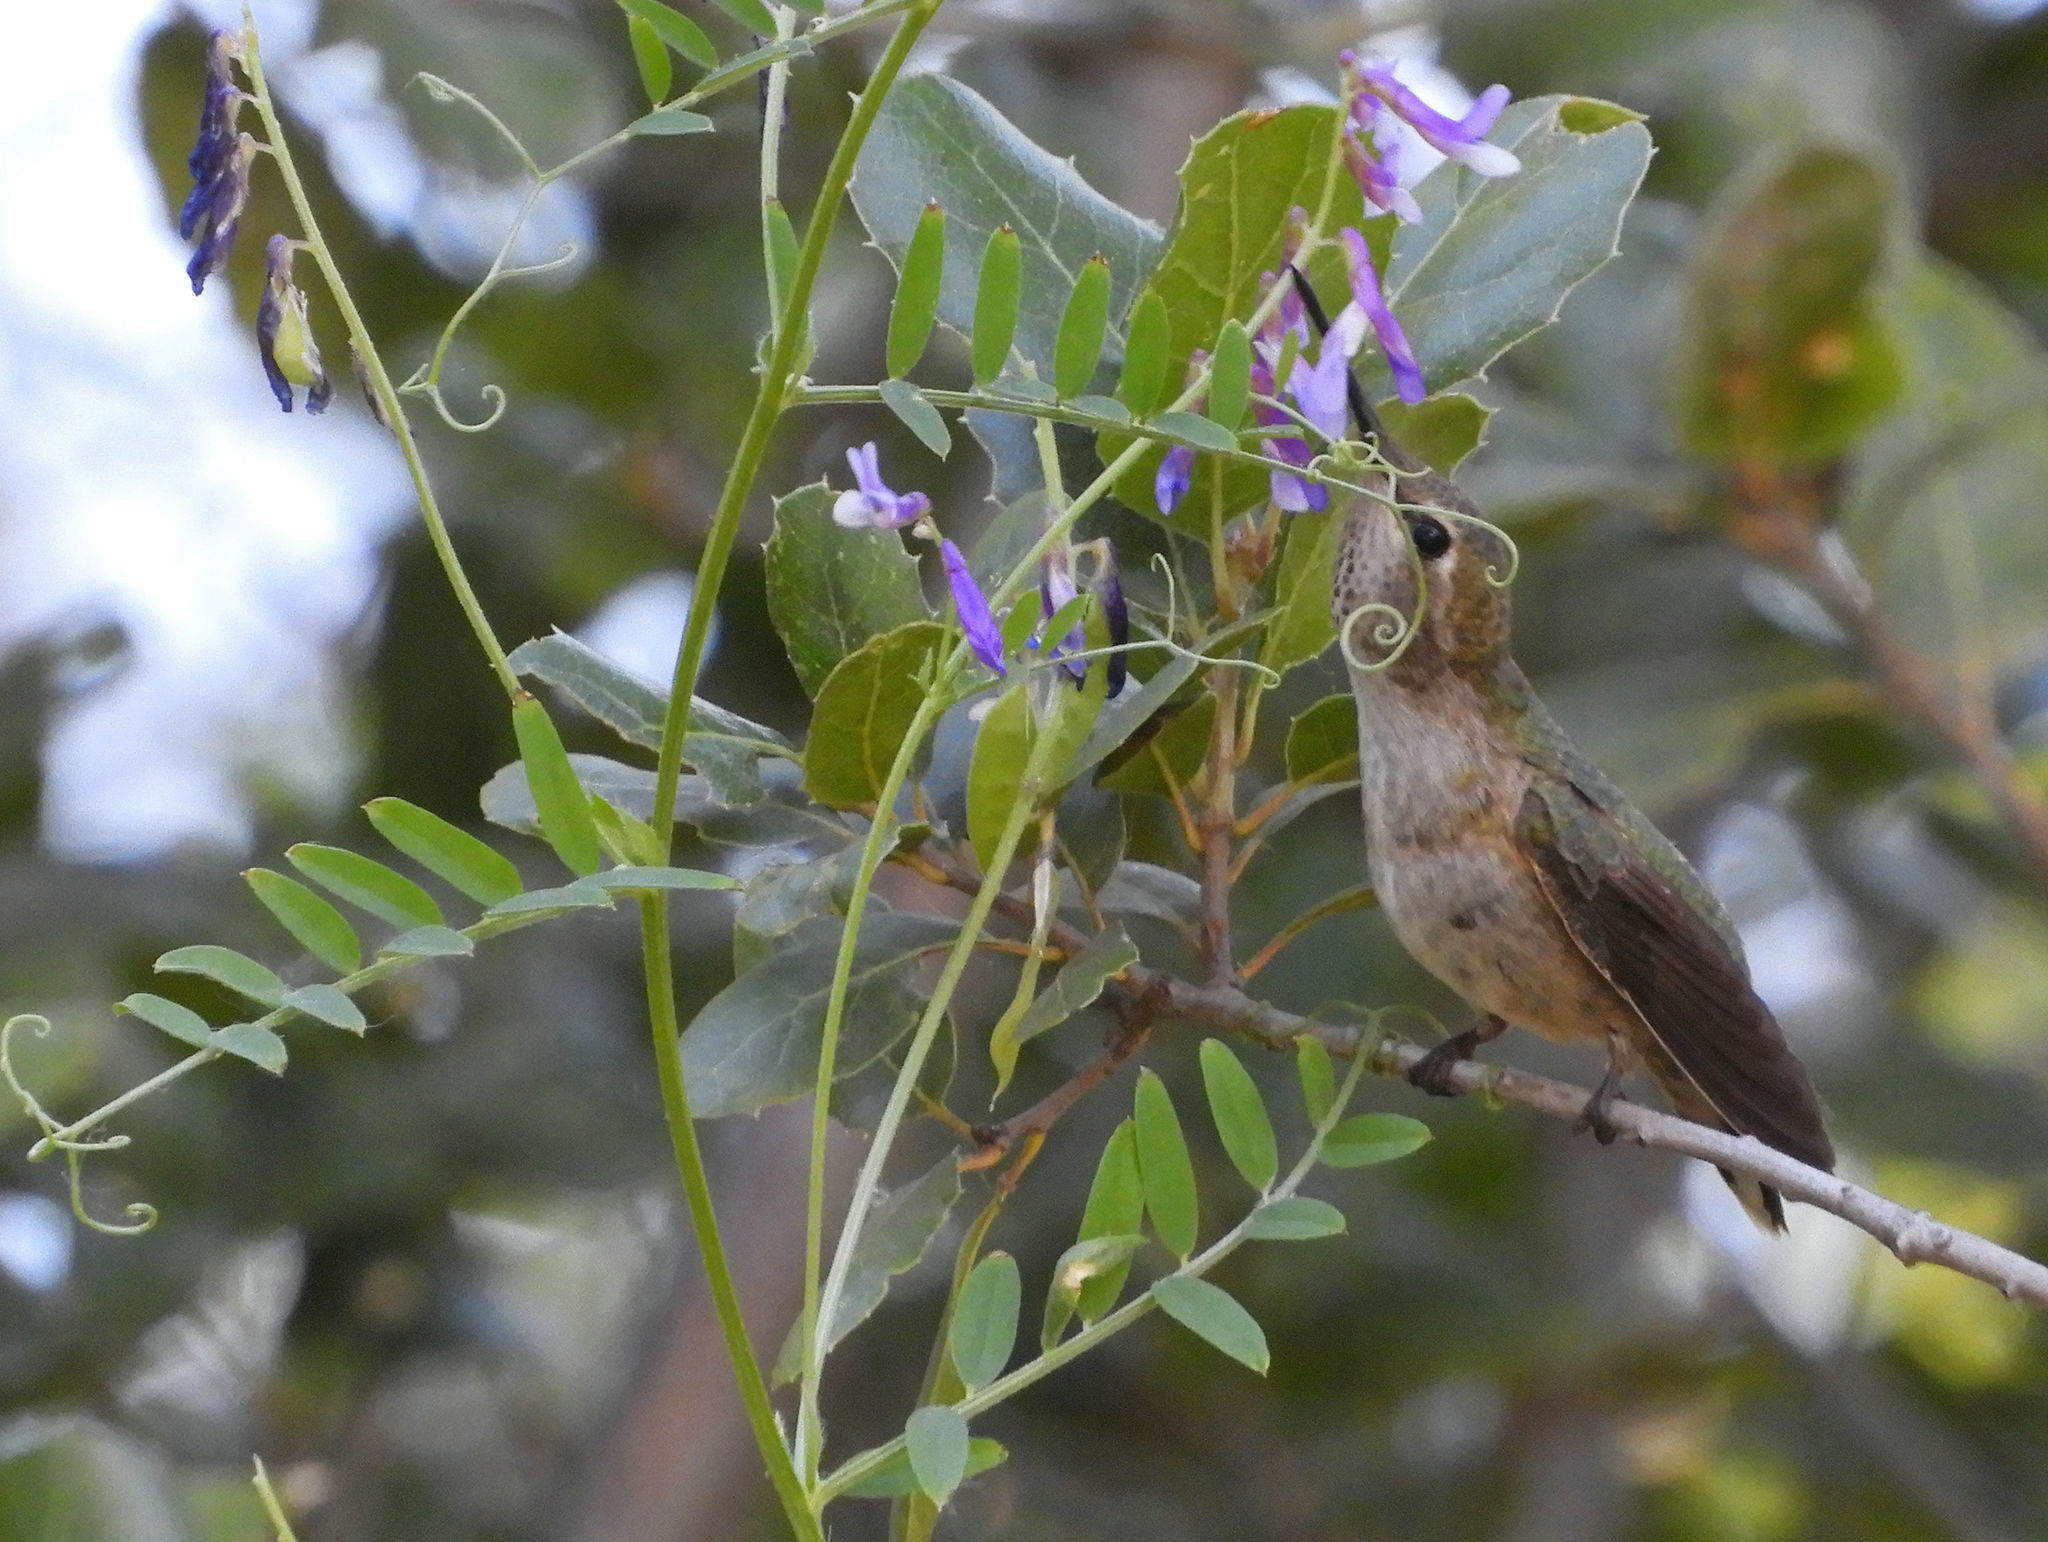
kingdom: Animalia
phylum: Chordata
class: Aves
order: Apodiformes
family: Trochilidae
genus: Calypte
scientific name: Calypte anna
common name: Anna's hummingbird
